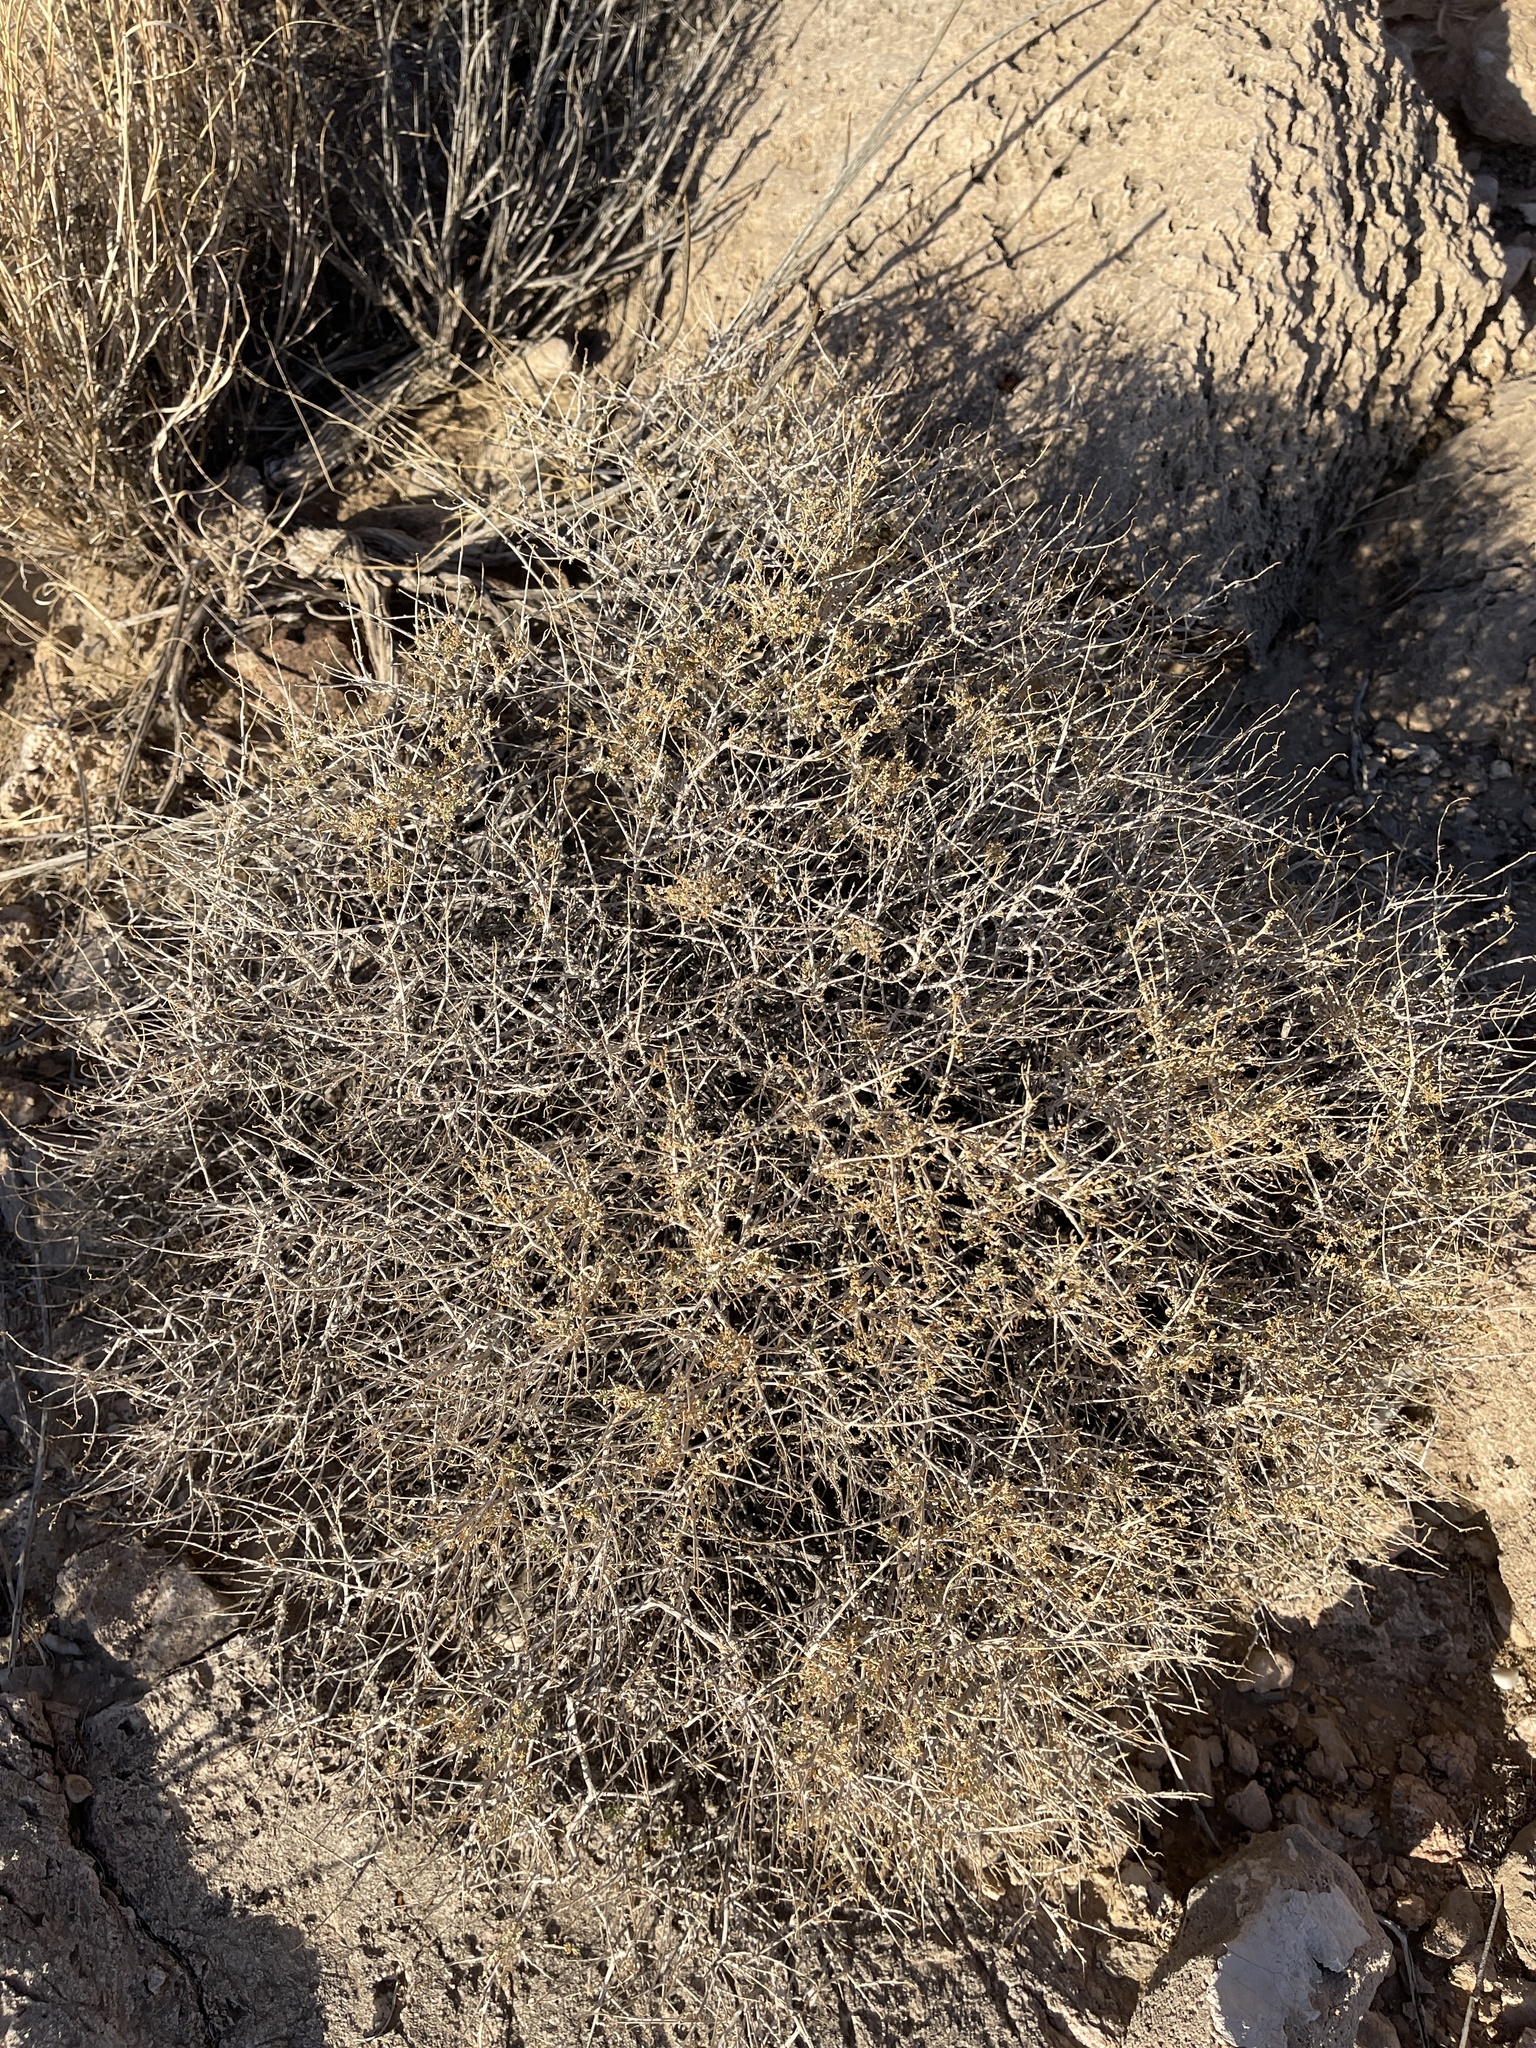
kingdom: Plantae
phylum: Tracheophyta
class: Magnoliopsida
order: Asterales
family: Asteraceae
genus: Ambrosia
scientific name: Ambrosia dumosa
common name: Bur-sage
